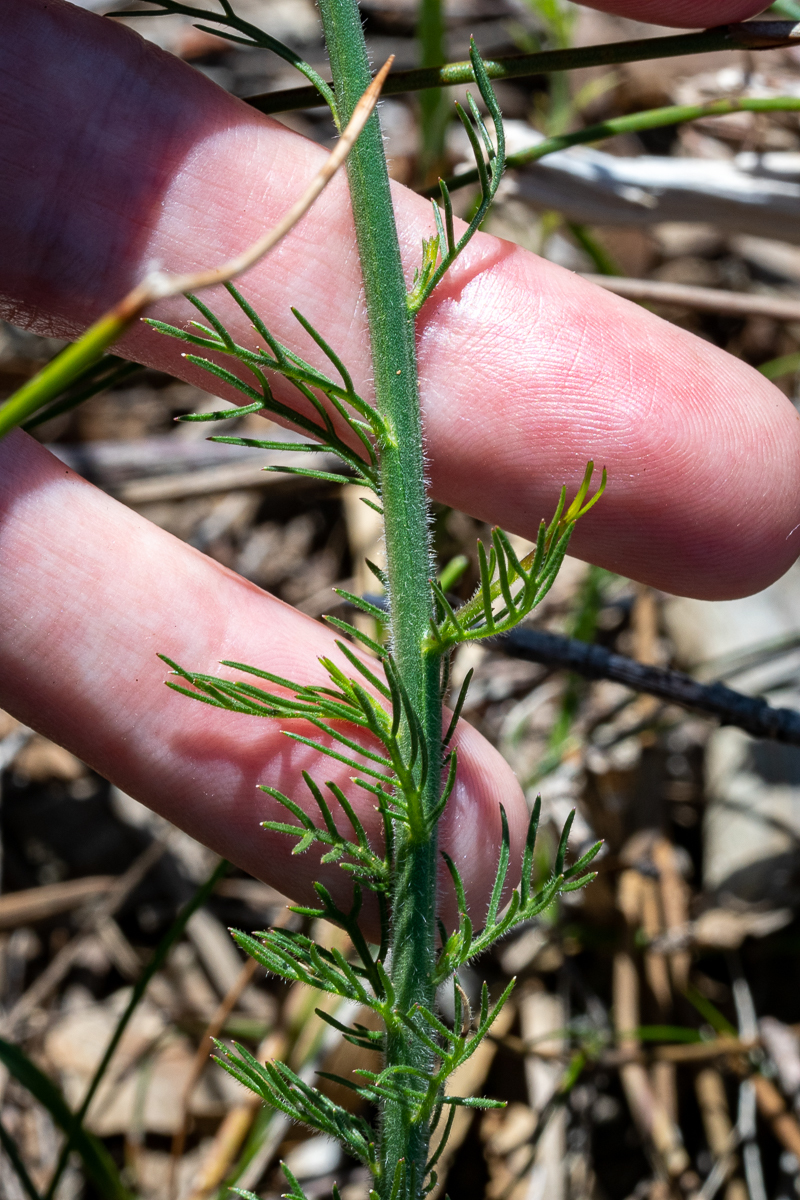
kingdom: Plantae
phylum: Tracheophyta
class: Magnoliopsida
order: Asterales
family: Campanulaceae
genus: Lobelia
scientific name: Lobelia setacea
